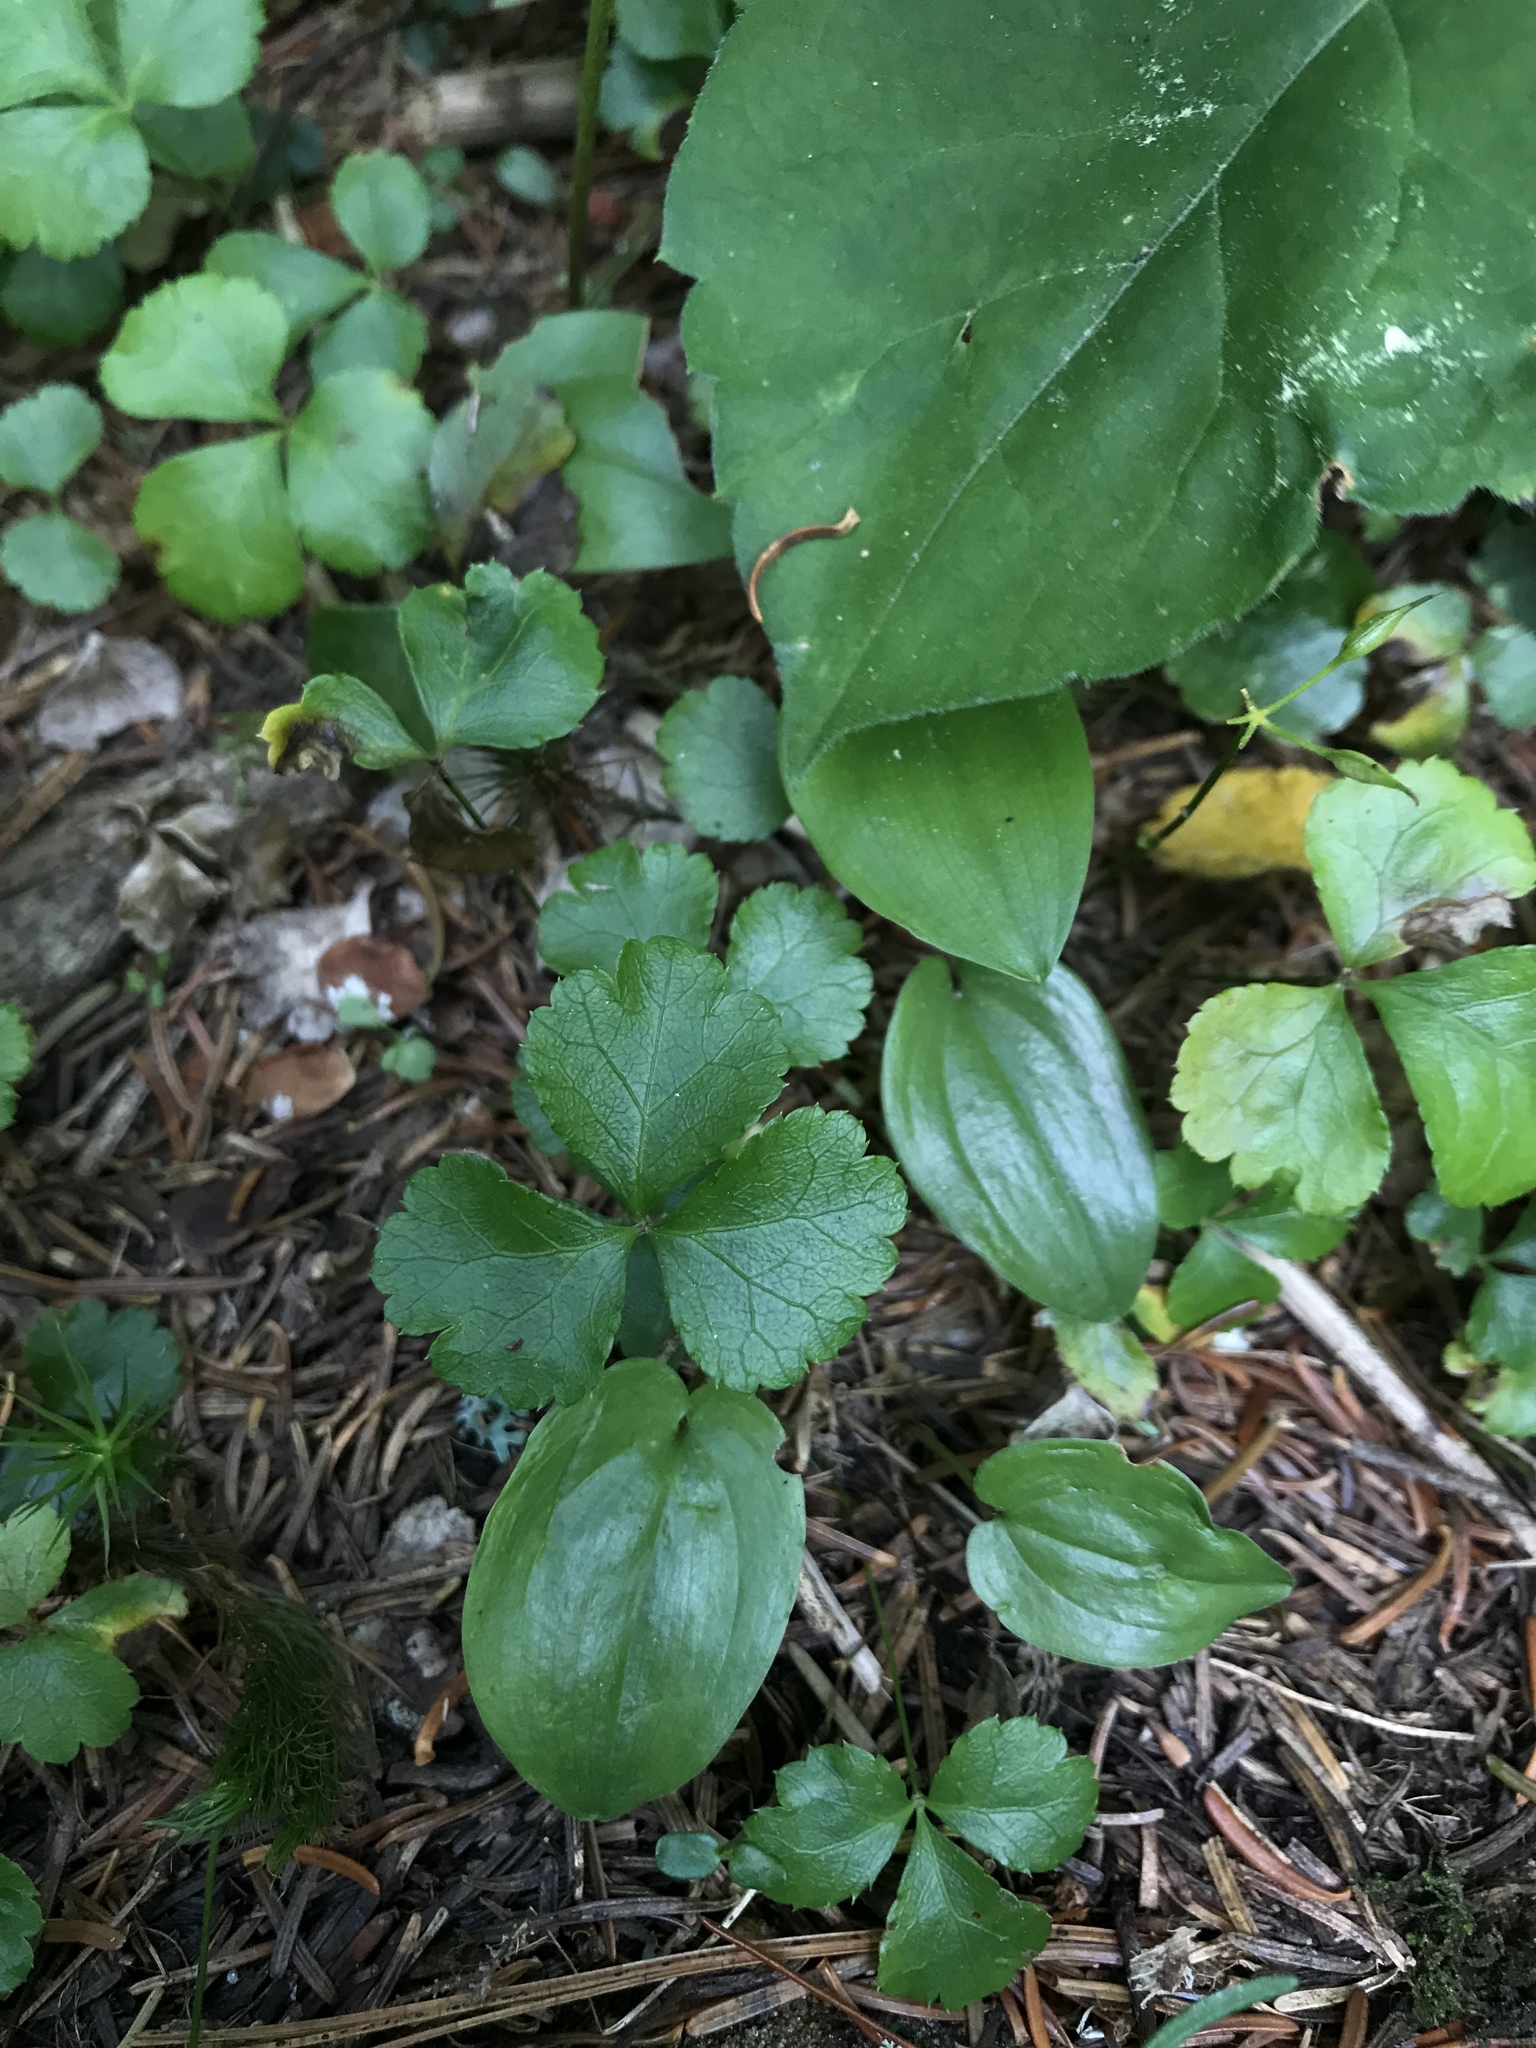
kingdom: Plantae
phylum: Tracheophyta
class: Magnoliopsida
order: Ranunculales
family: Ranunculaceae
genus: Coptis
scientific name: Coptis trifolia
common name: Canker-root
